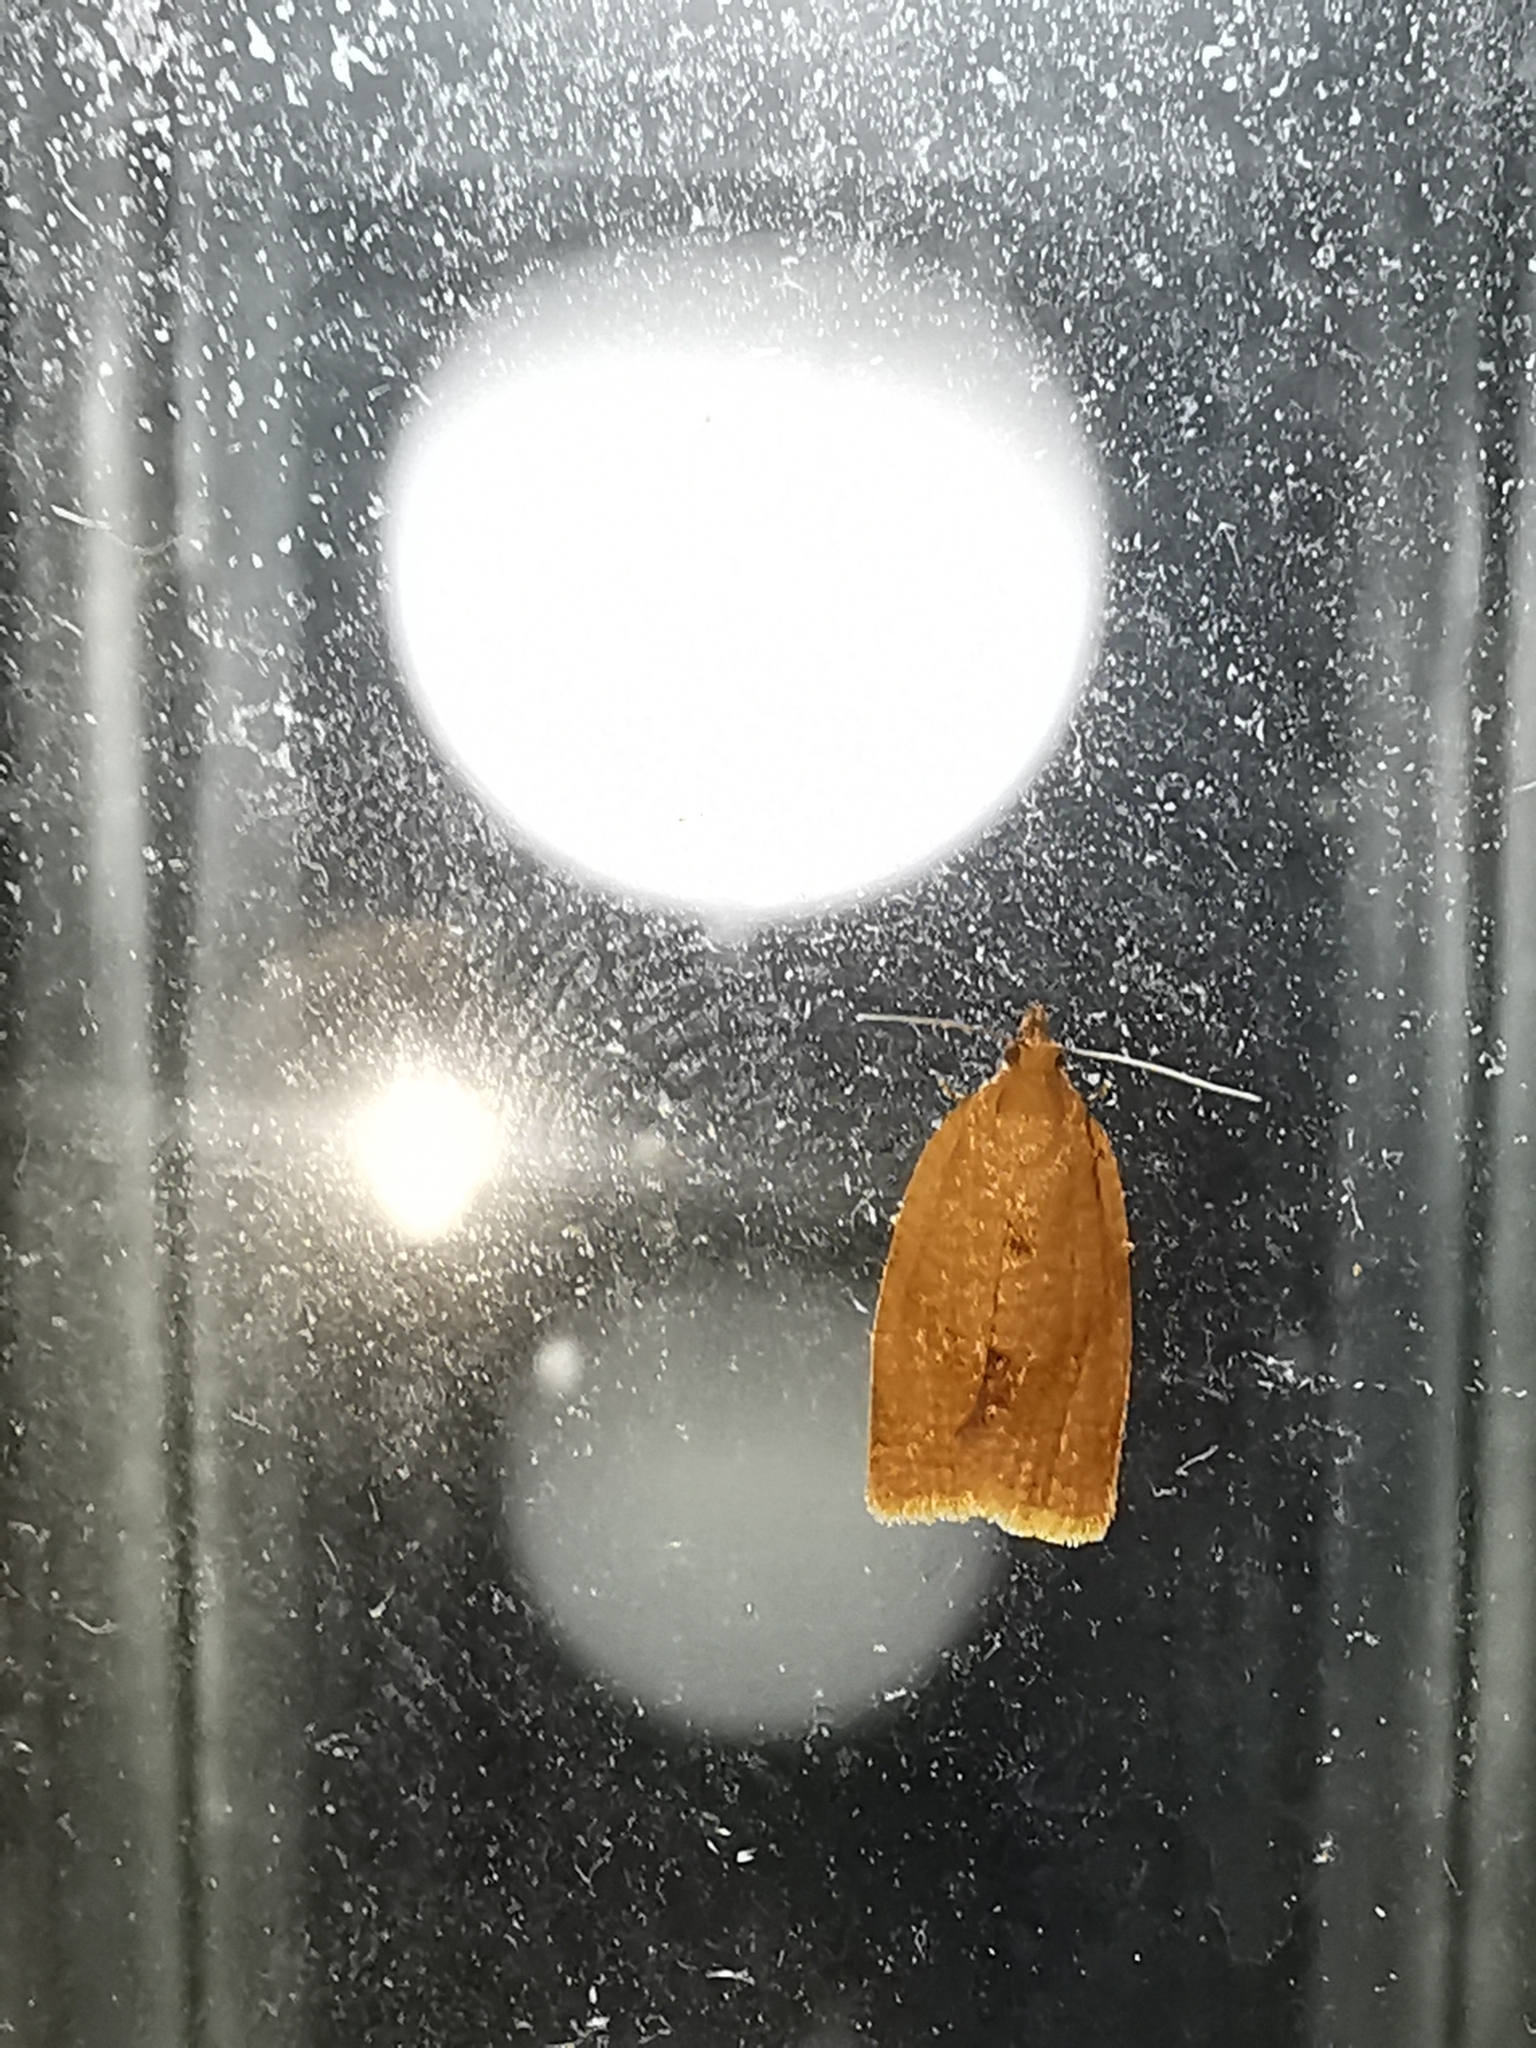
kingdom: Animalia
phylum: Arthropoda
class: Insecta
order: Lepidoptera
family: Tortricidae
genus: Clepsis
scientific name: Clepsis consimilana
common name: Privet tortrix
